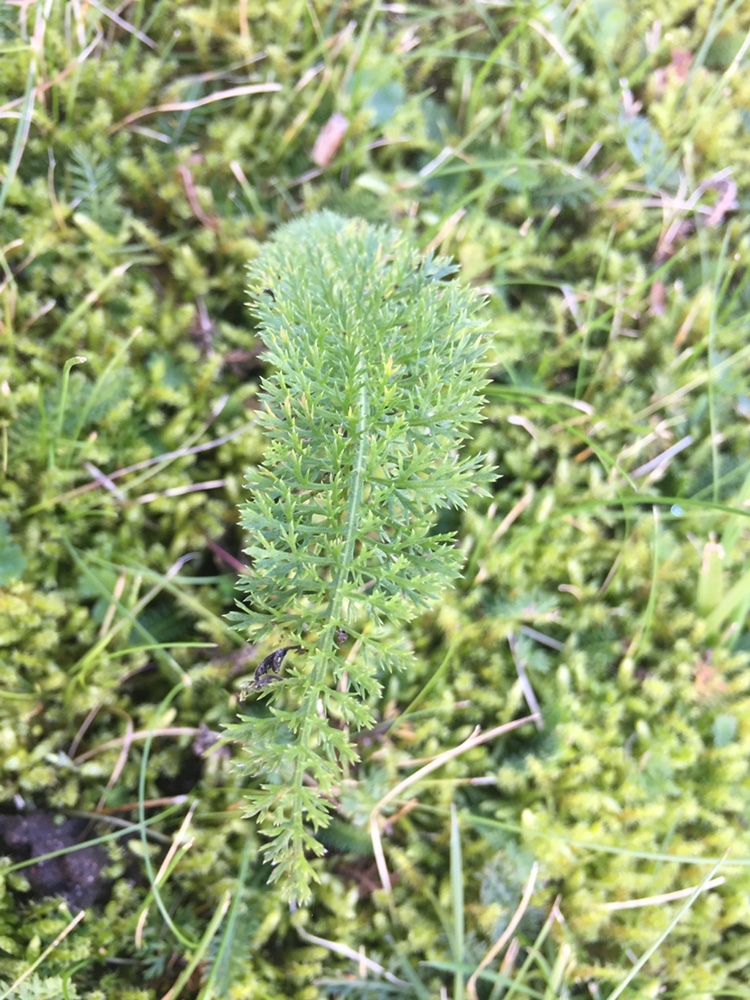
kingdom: Plantae
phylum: Tracheophyta
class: Magnoliopsida
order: Asterales
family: Asteraceae
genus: Achillea
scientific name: Achillea millefolium
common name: Yarrow
